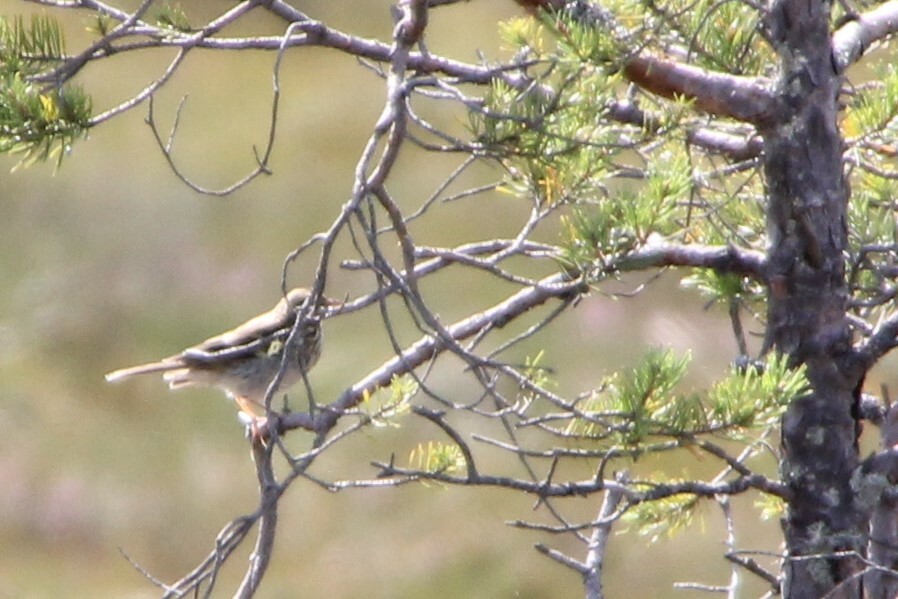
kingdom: Animalia
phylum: Chordata
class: Aves
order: Passeriformes
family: Motacillidae
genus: Anthus
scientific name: Anthus trivialis
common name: Tree pipit
